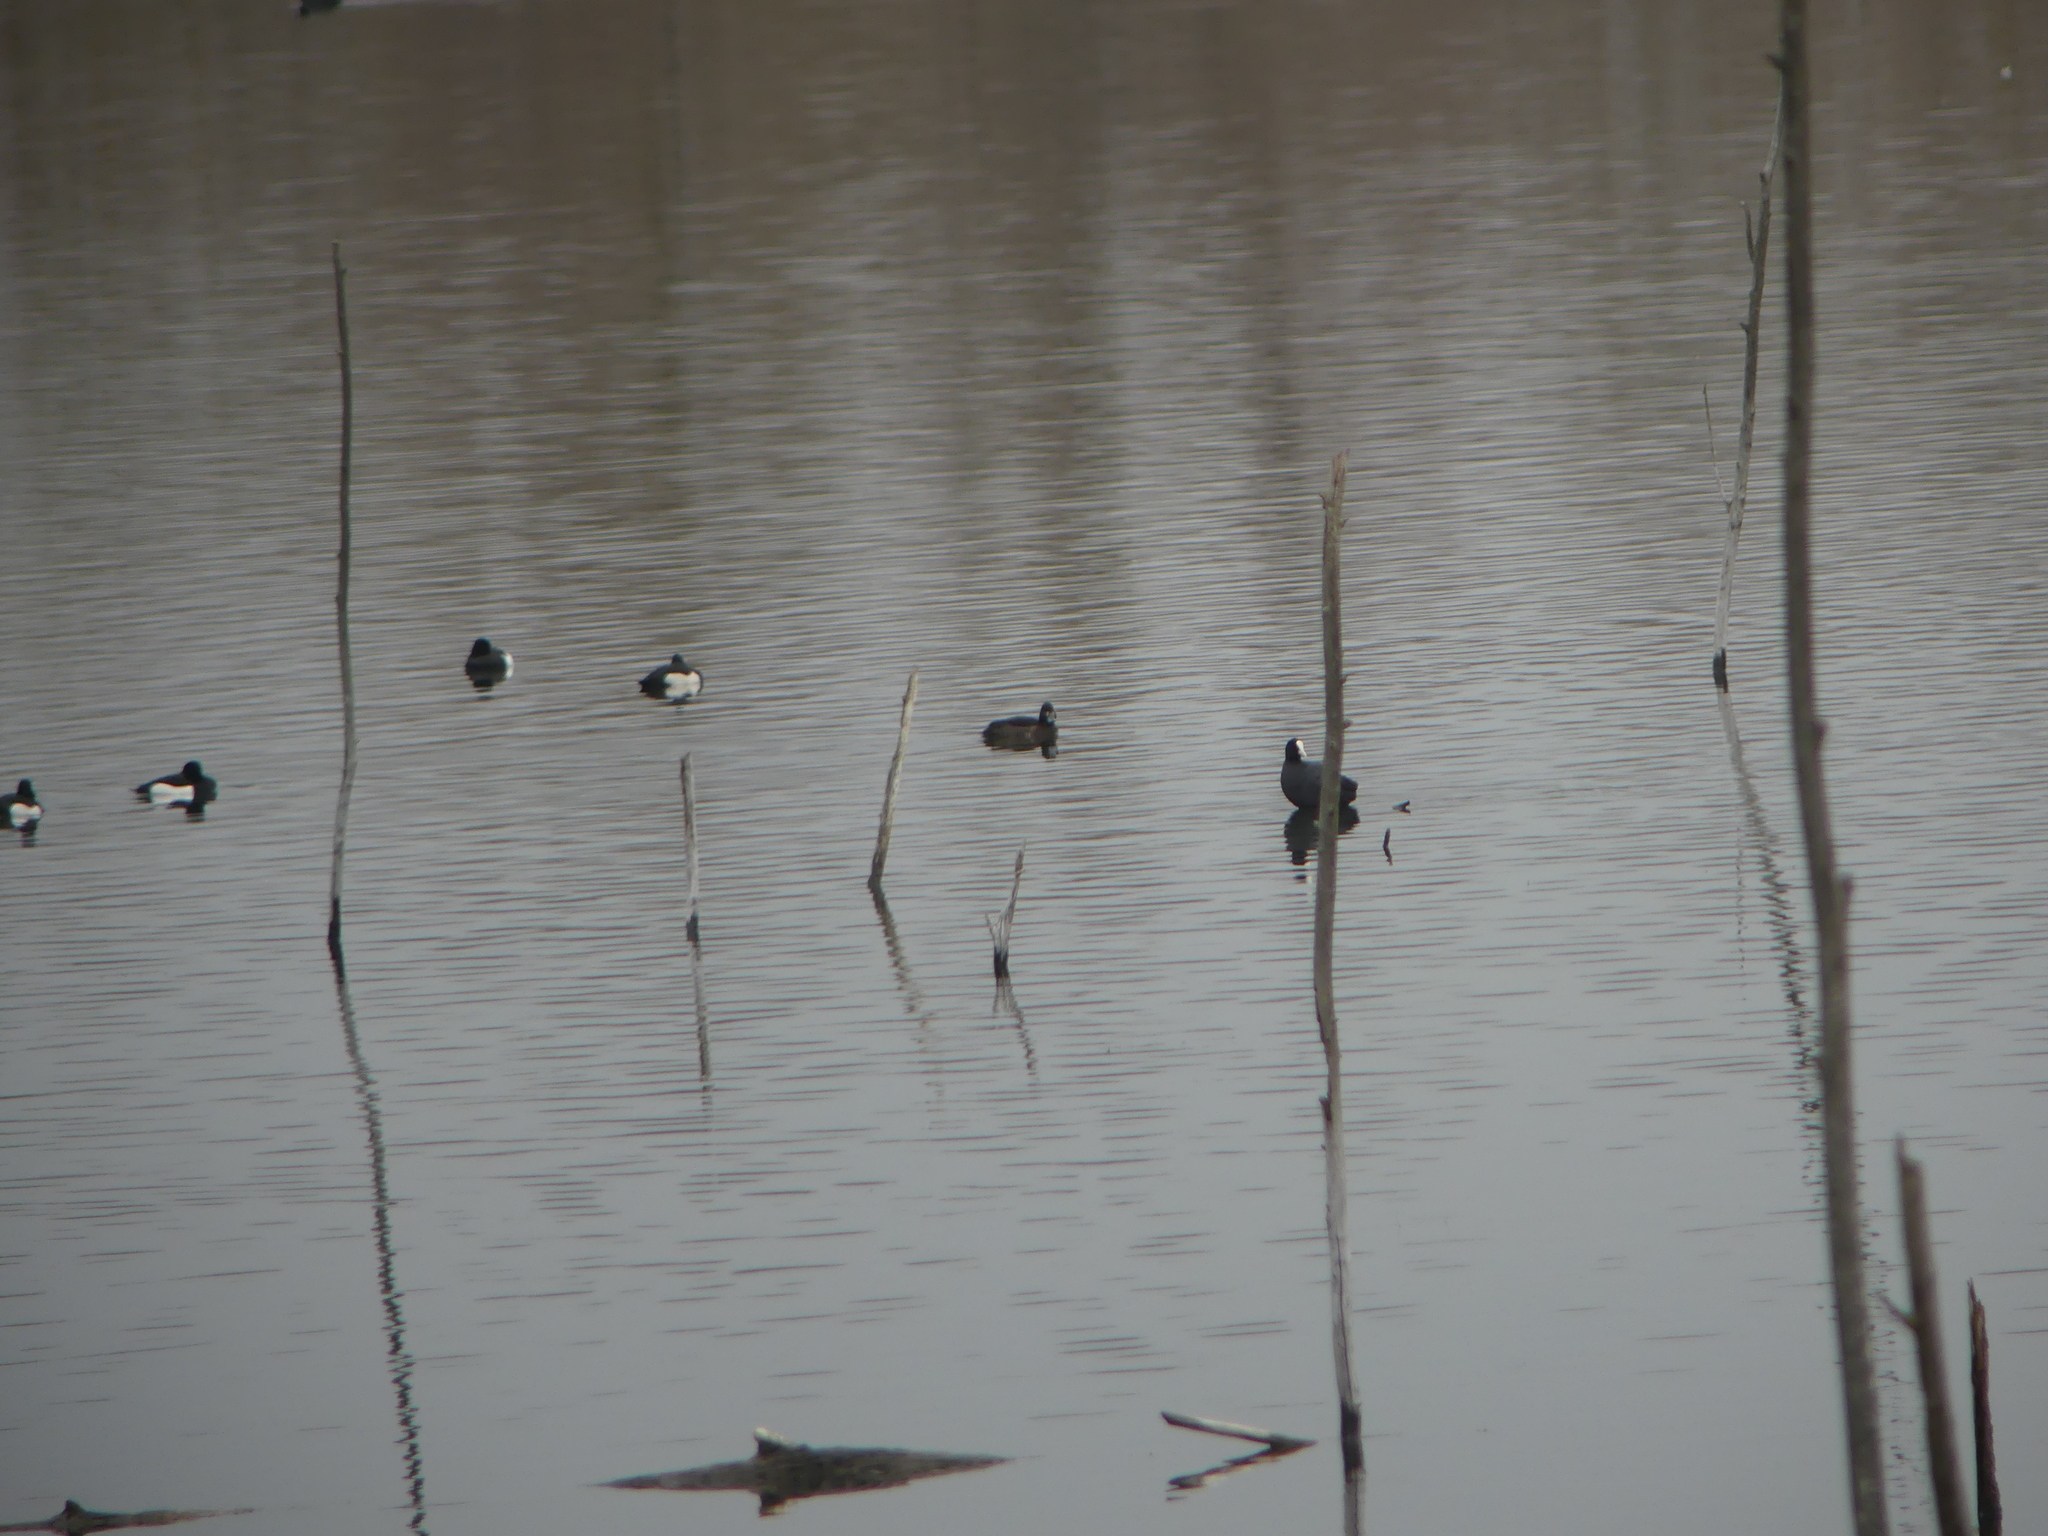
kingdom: Animalia
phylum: Chordata
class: Aves
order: Anseriformes
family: Anatidae
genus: Aythya
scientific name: Aythya fuligula
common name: Tufted duck
